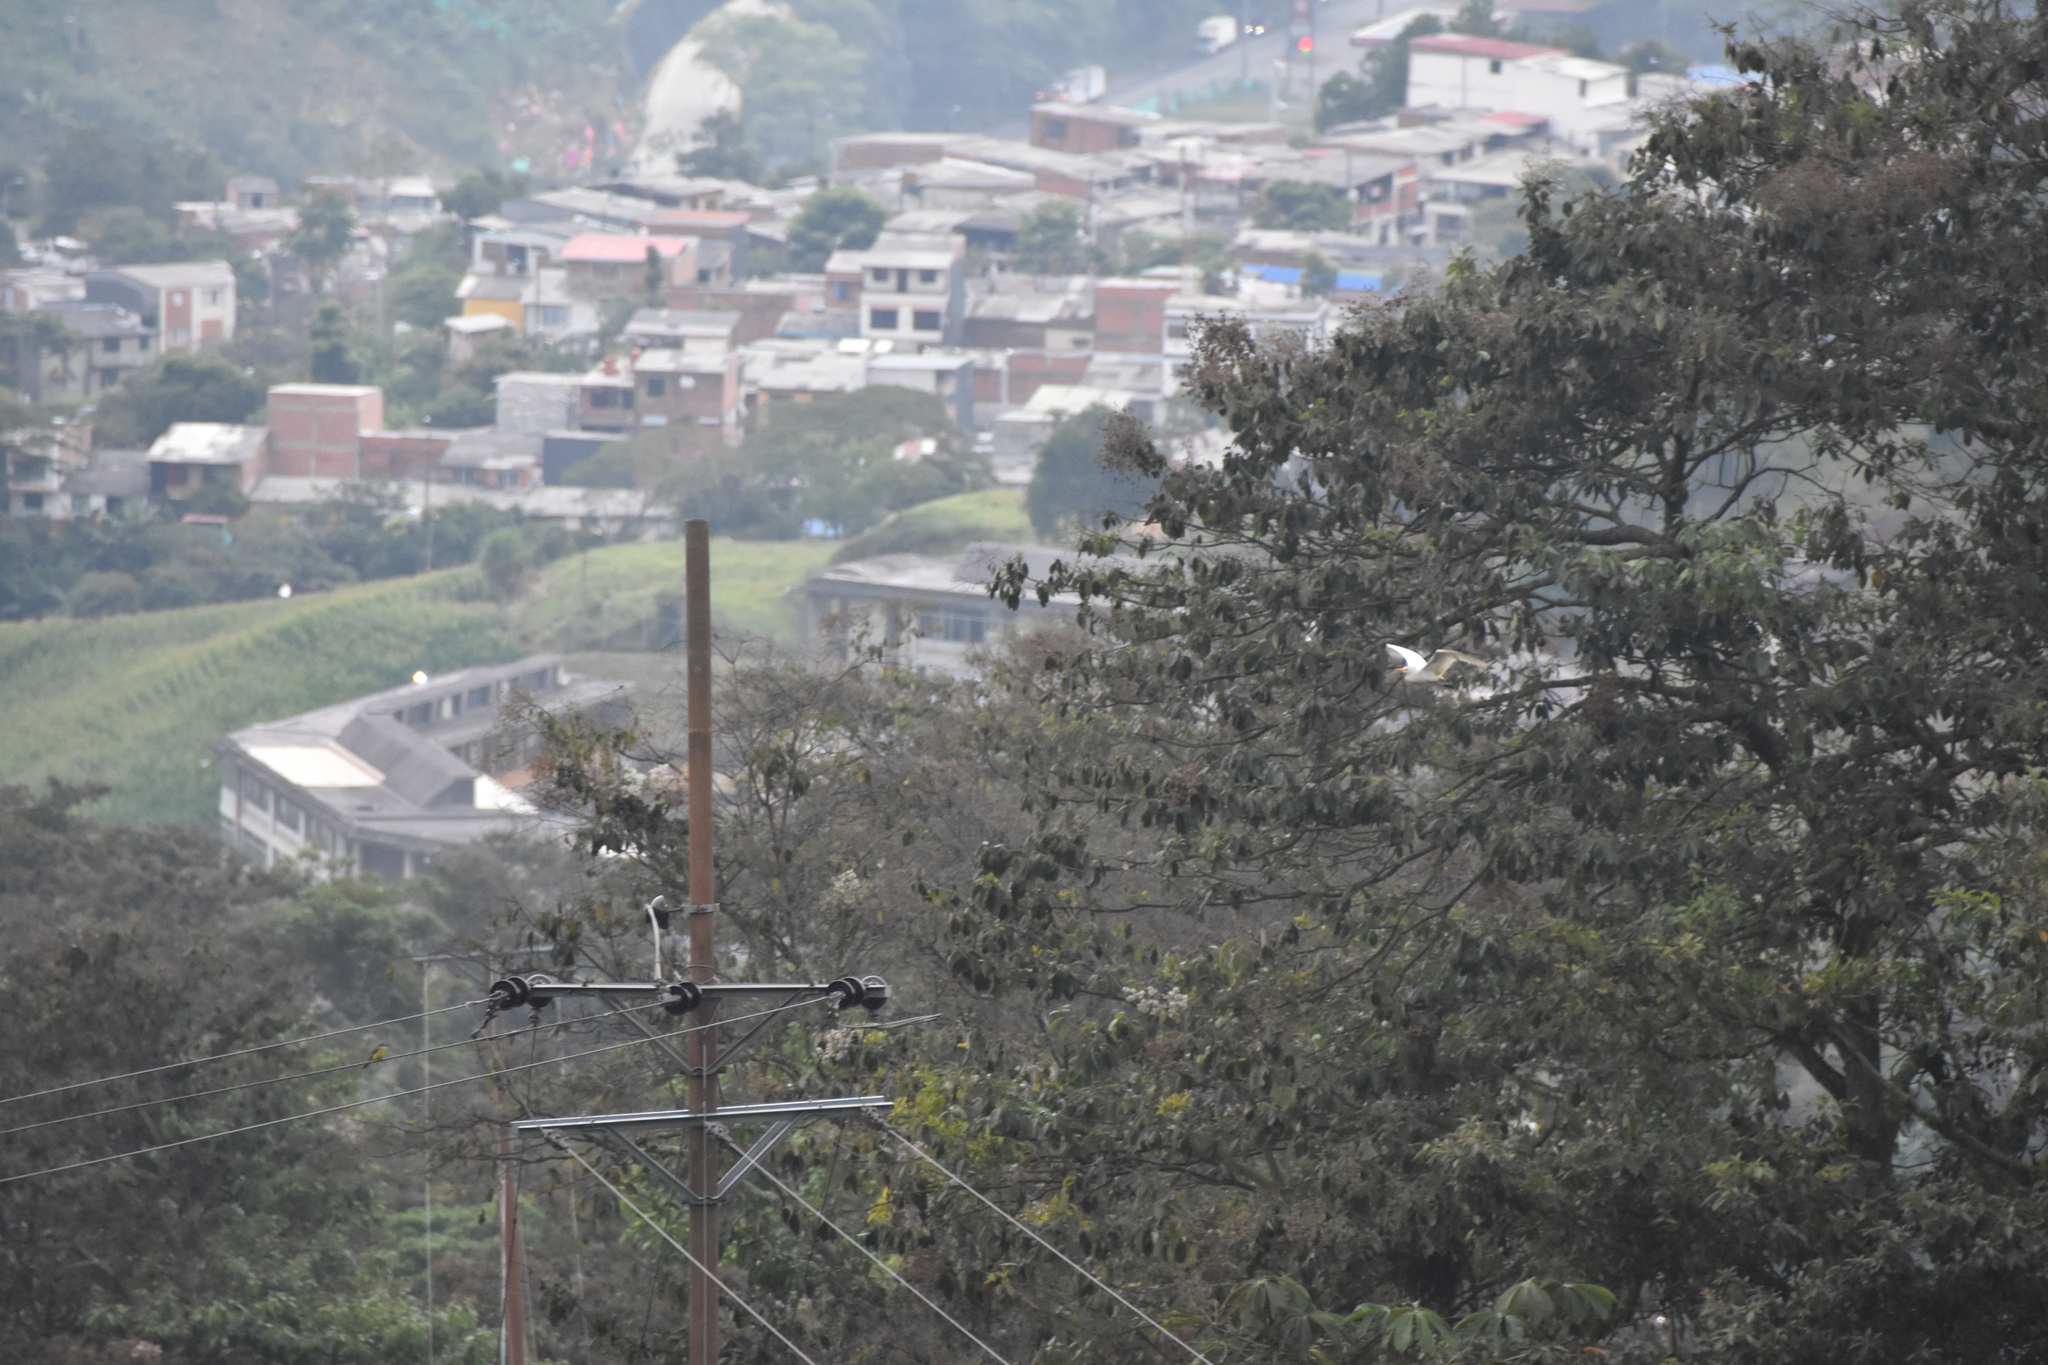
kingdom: Animalia
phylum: Chordata
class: Aves
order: Pelecaniformes
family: Ardeidae
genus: Bubulcus
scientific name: Bubulcus ibis
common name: Cattle egret
